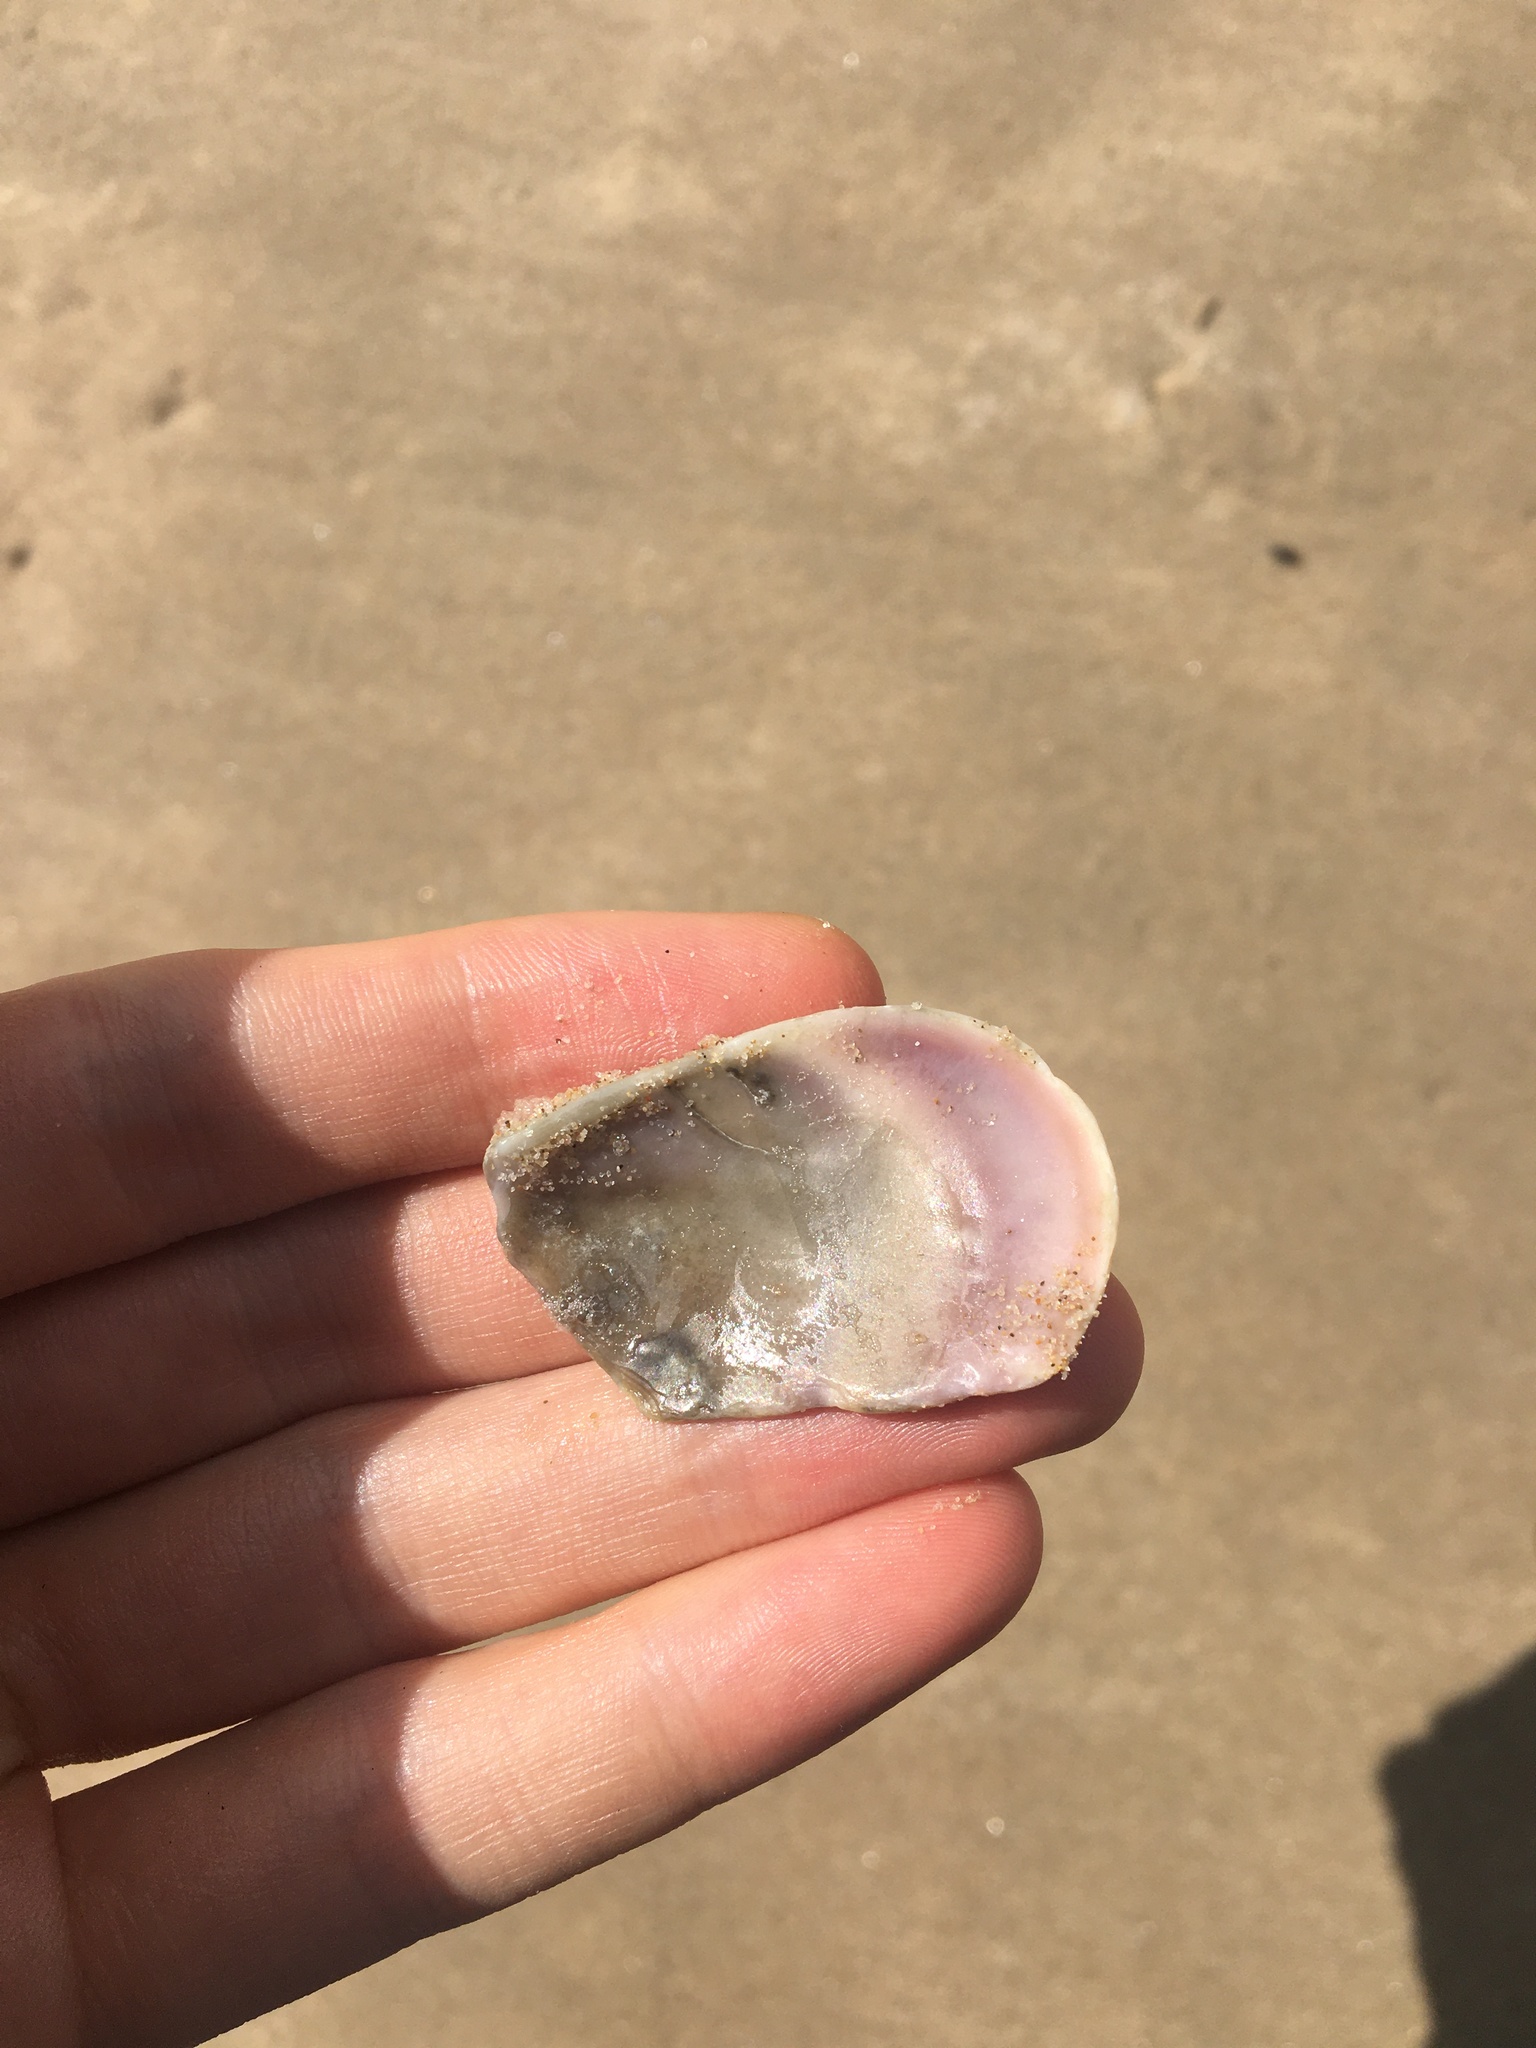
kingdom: Animalia
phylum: Mollusca
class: Bivalvia
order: Cardiida
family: Donacidae
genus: Latona
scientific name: Latona deltoides
